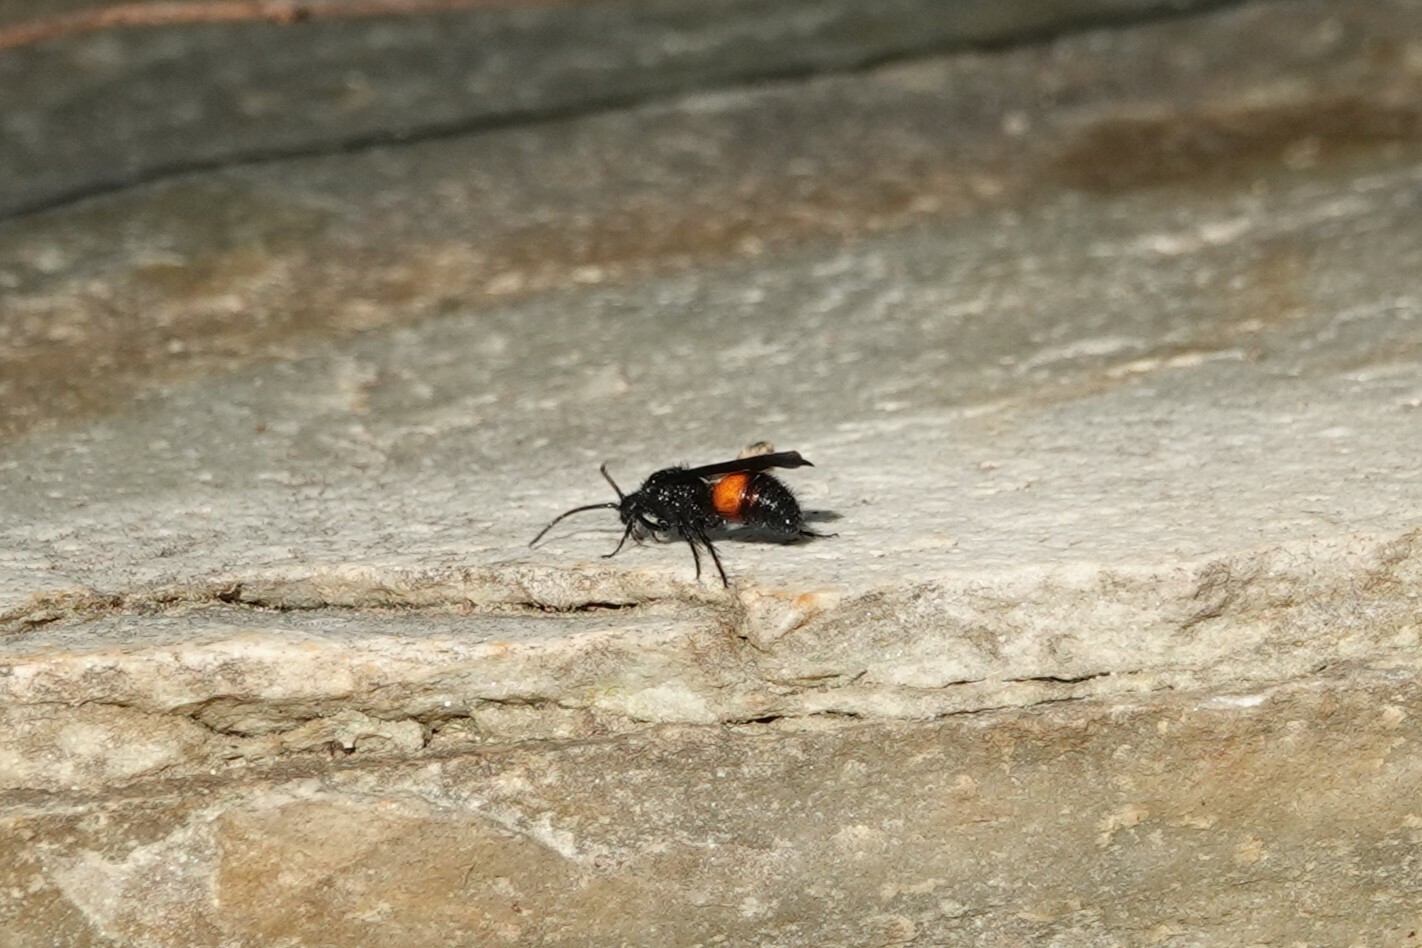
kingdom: Animalia
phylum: Arthropoda
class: Insecta
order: Hymenoptera
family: Mutillidae
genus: Dasymutilla
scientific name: Dasymutilla
